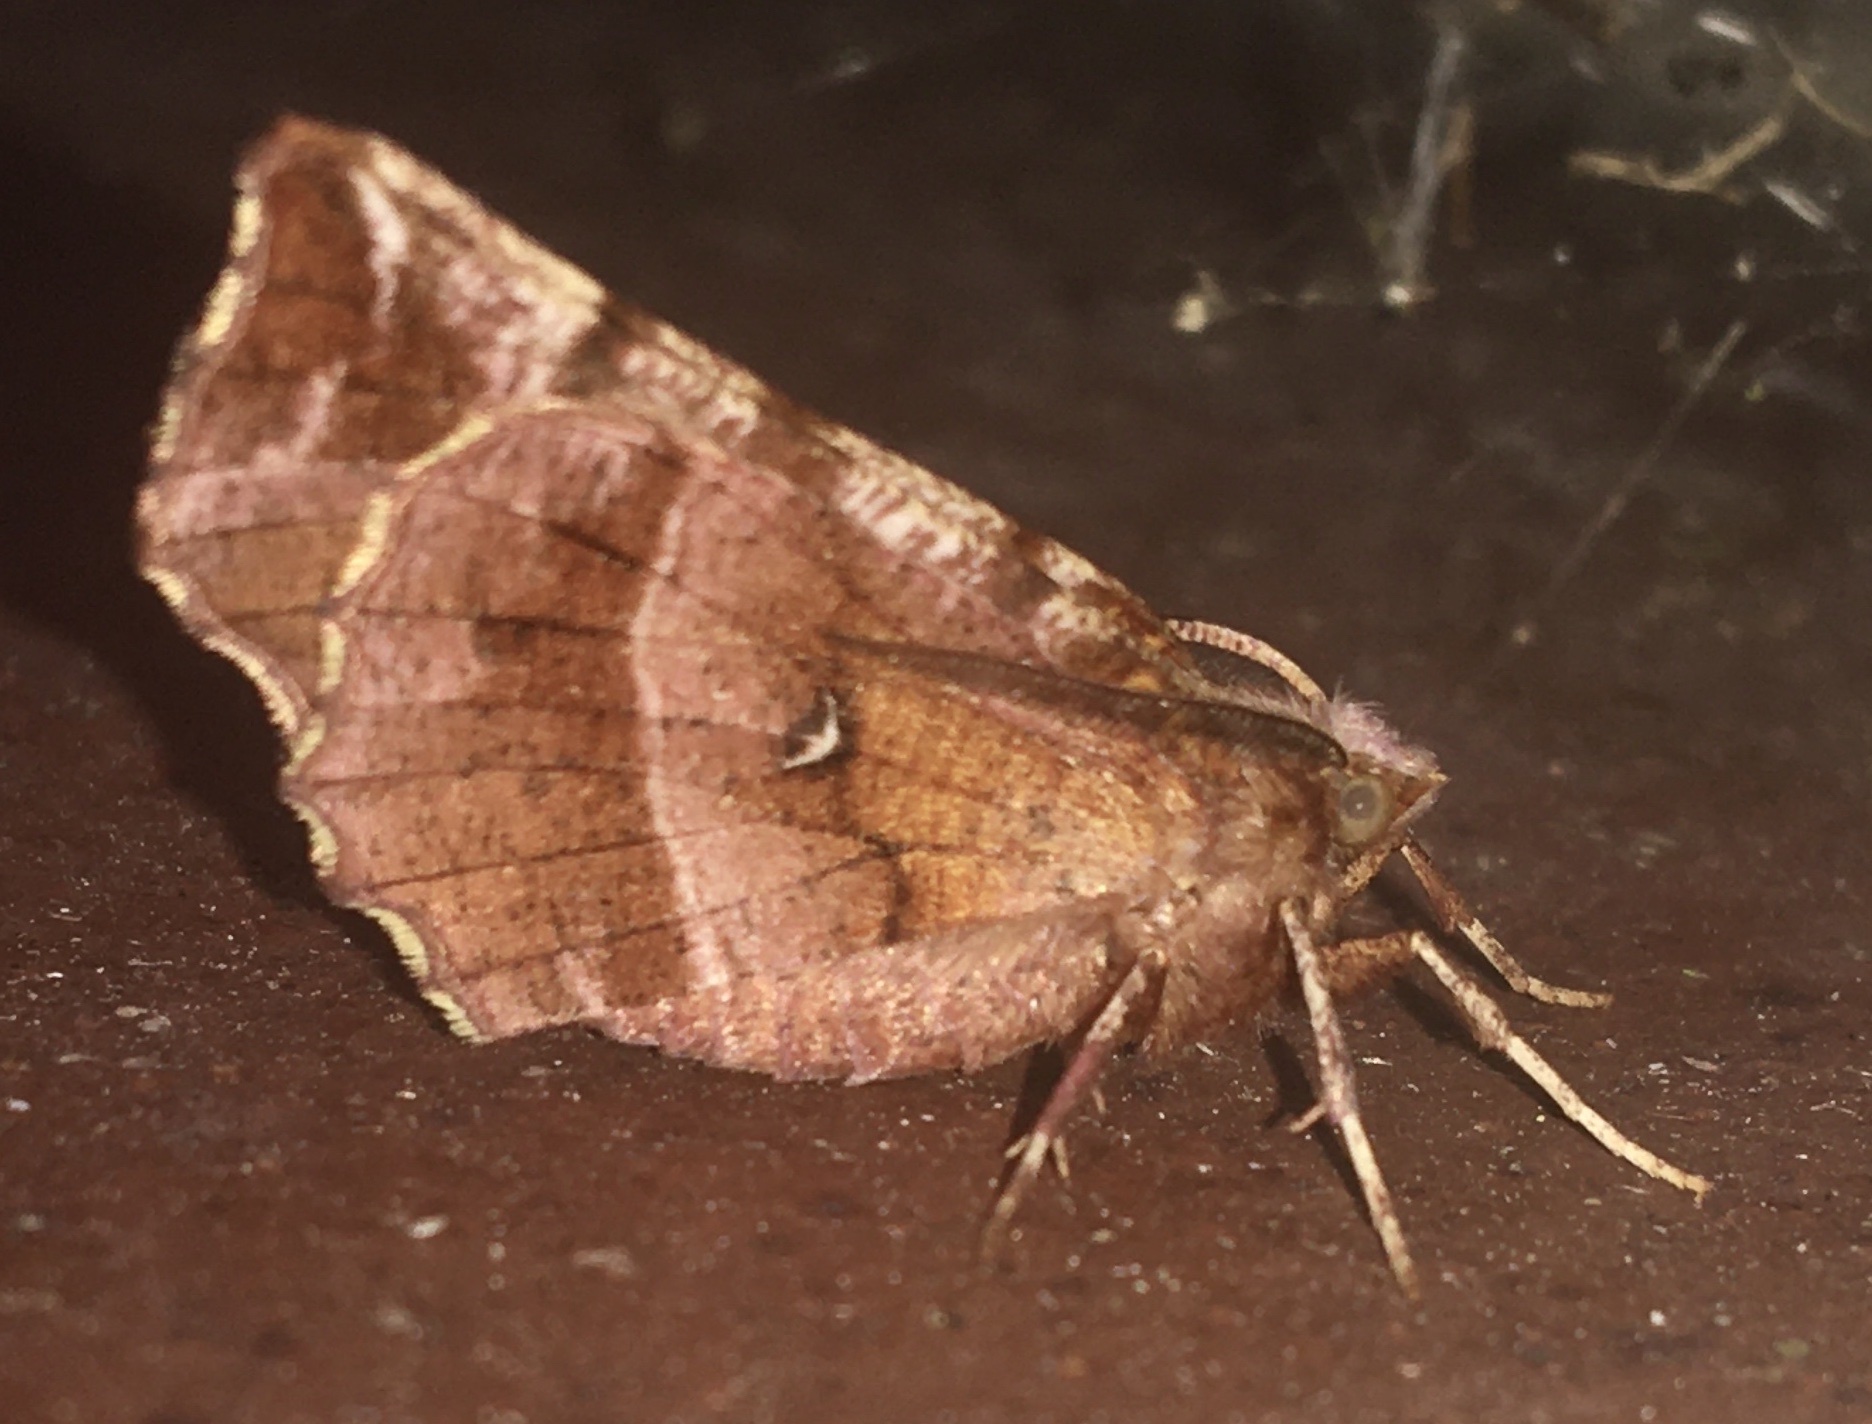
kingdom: Animalia
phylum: Arthropoda
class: Insecta
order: Lepidoptera
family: Geometridae
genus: Selenia
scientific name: Selenia dentaria
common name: Early thorn
